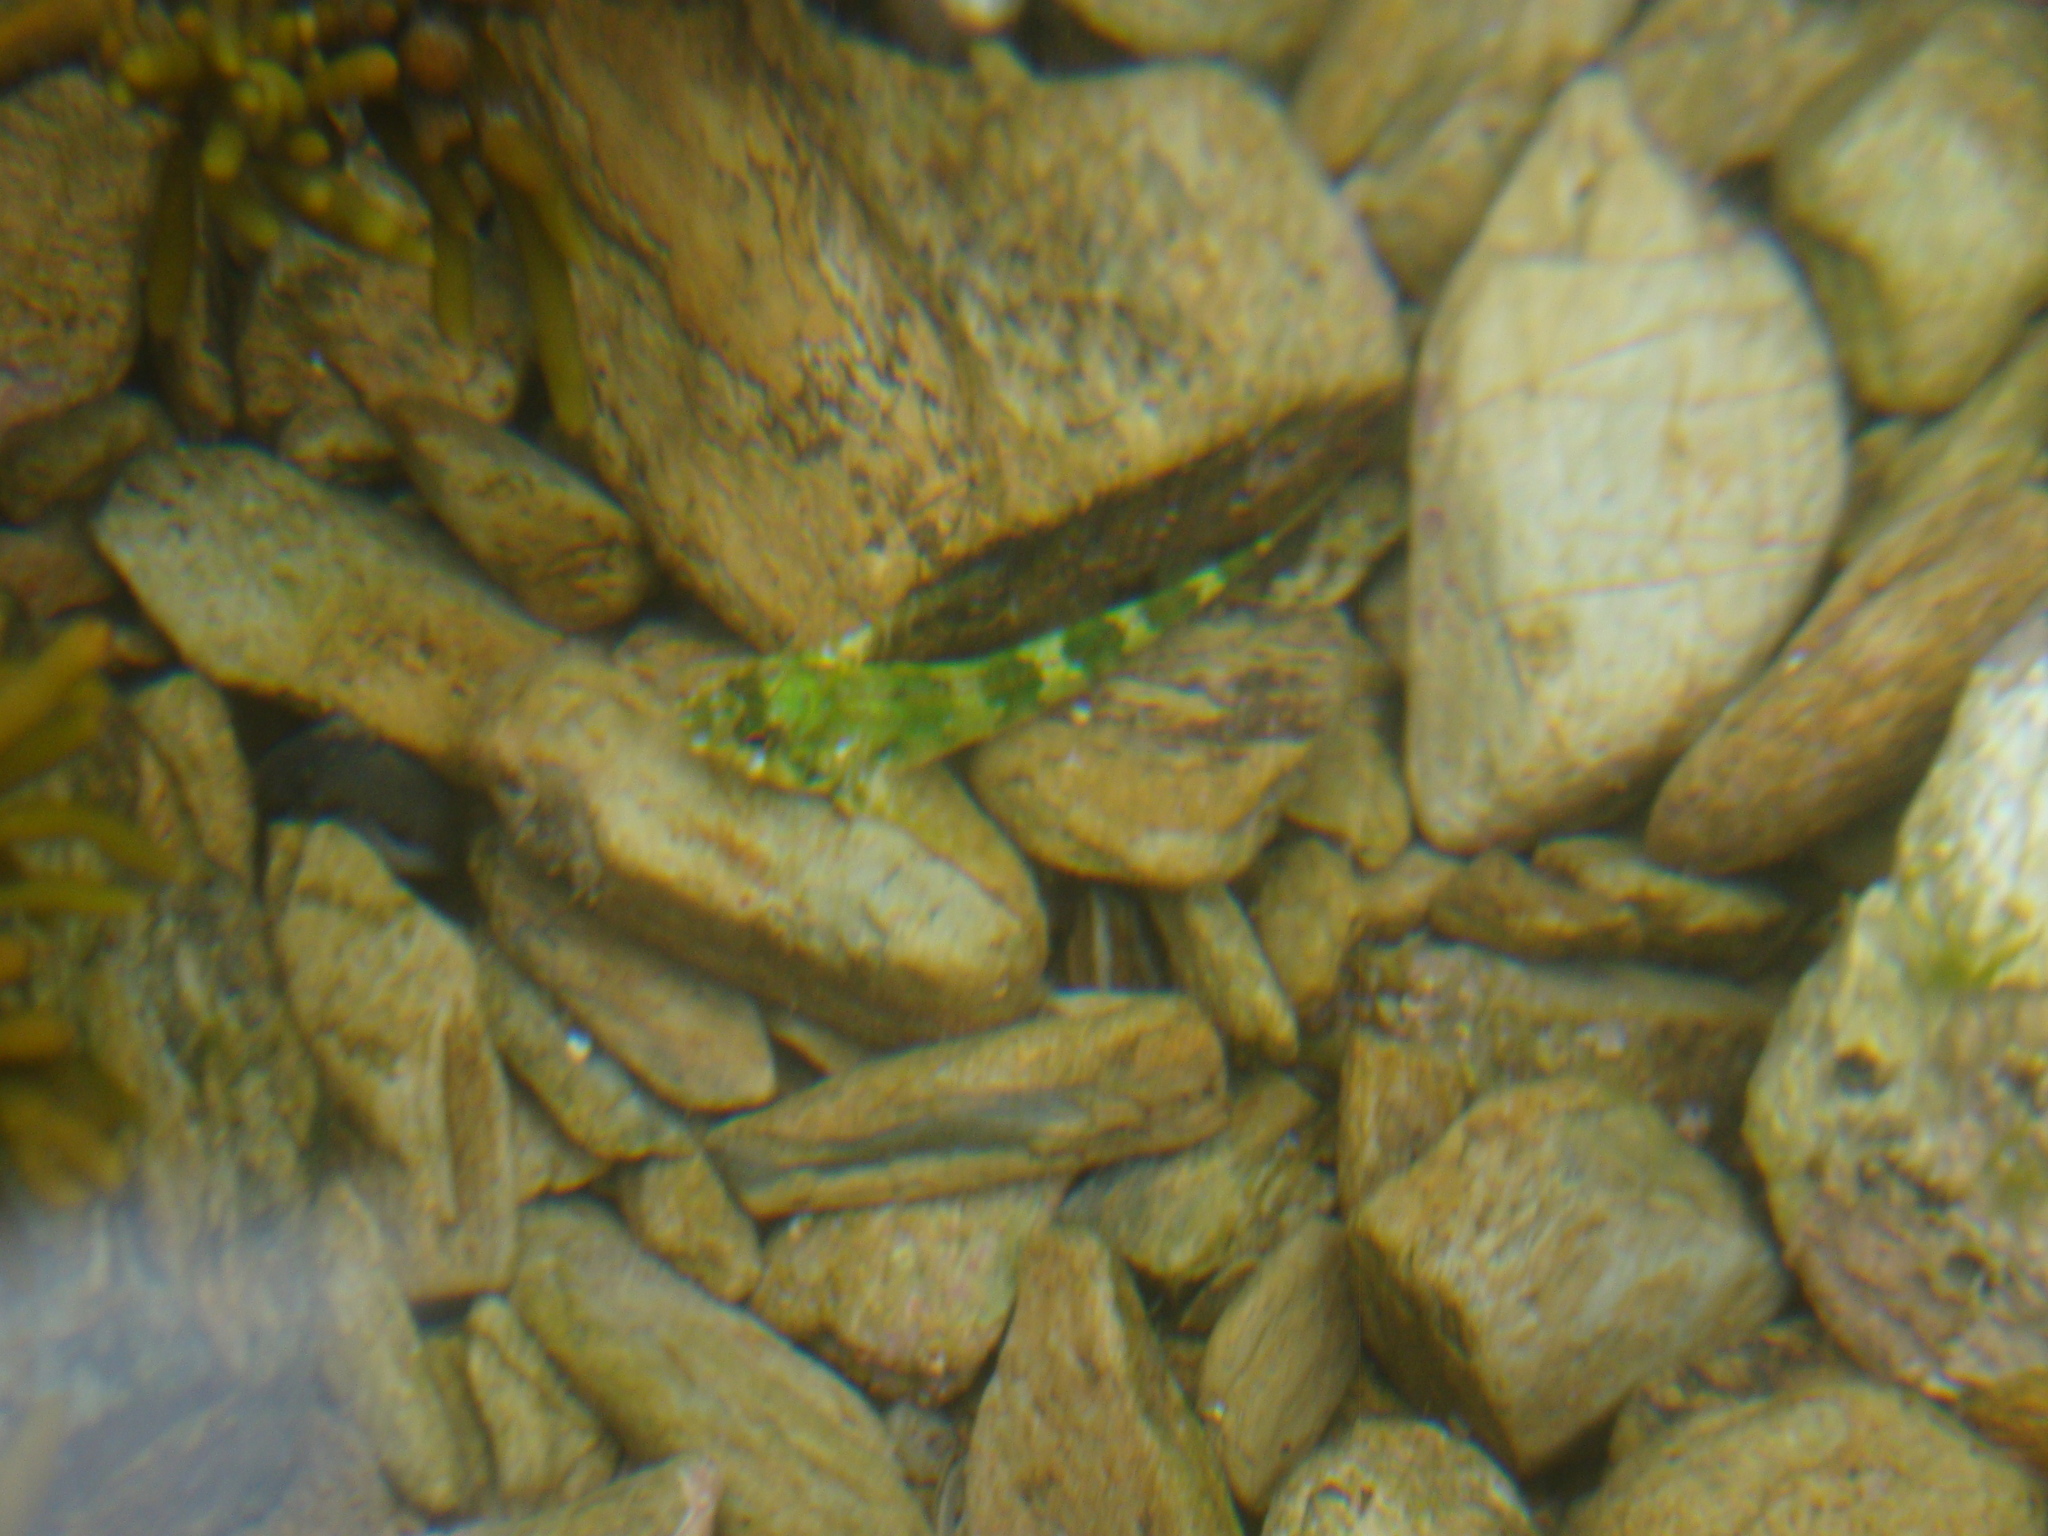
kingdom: Animalia
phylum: Chordata
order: Perciformes
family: Tripterygiidae
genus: Bellapiscis
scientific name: Bellapiscis medius
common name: Twister
